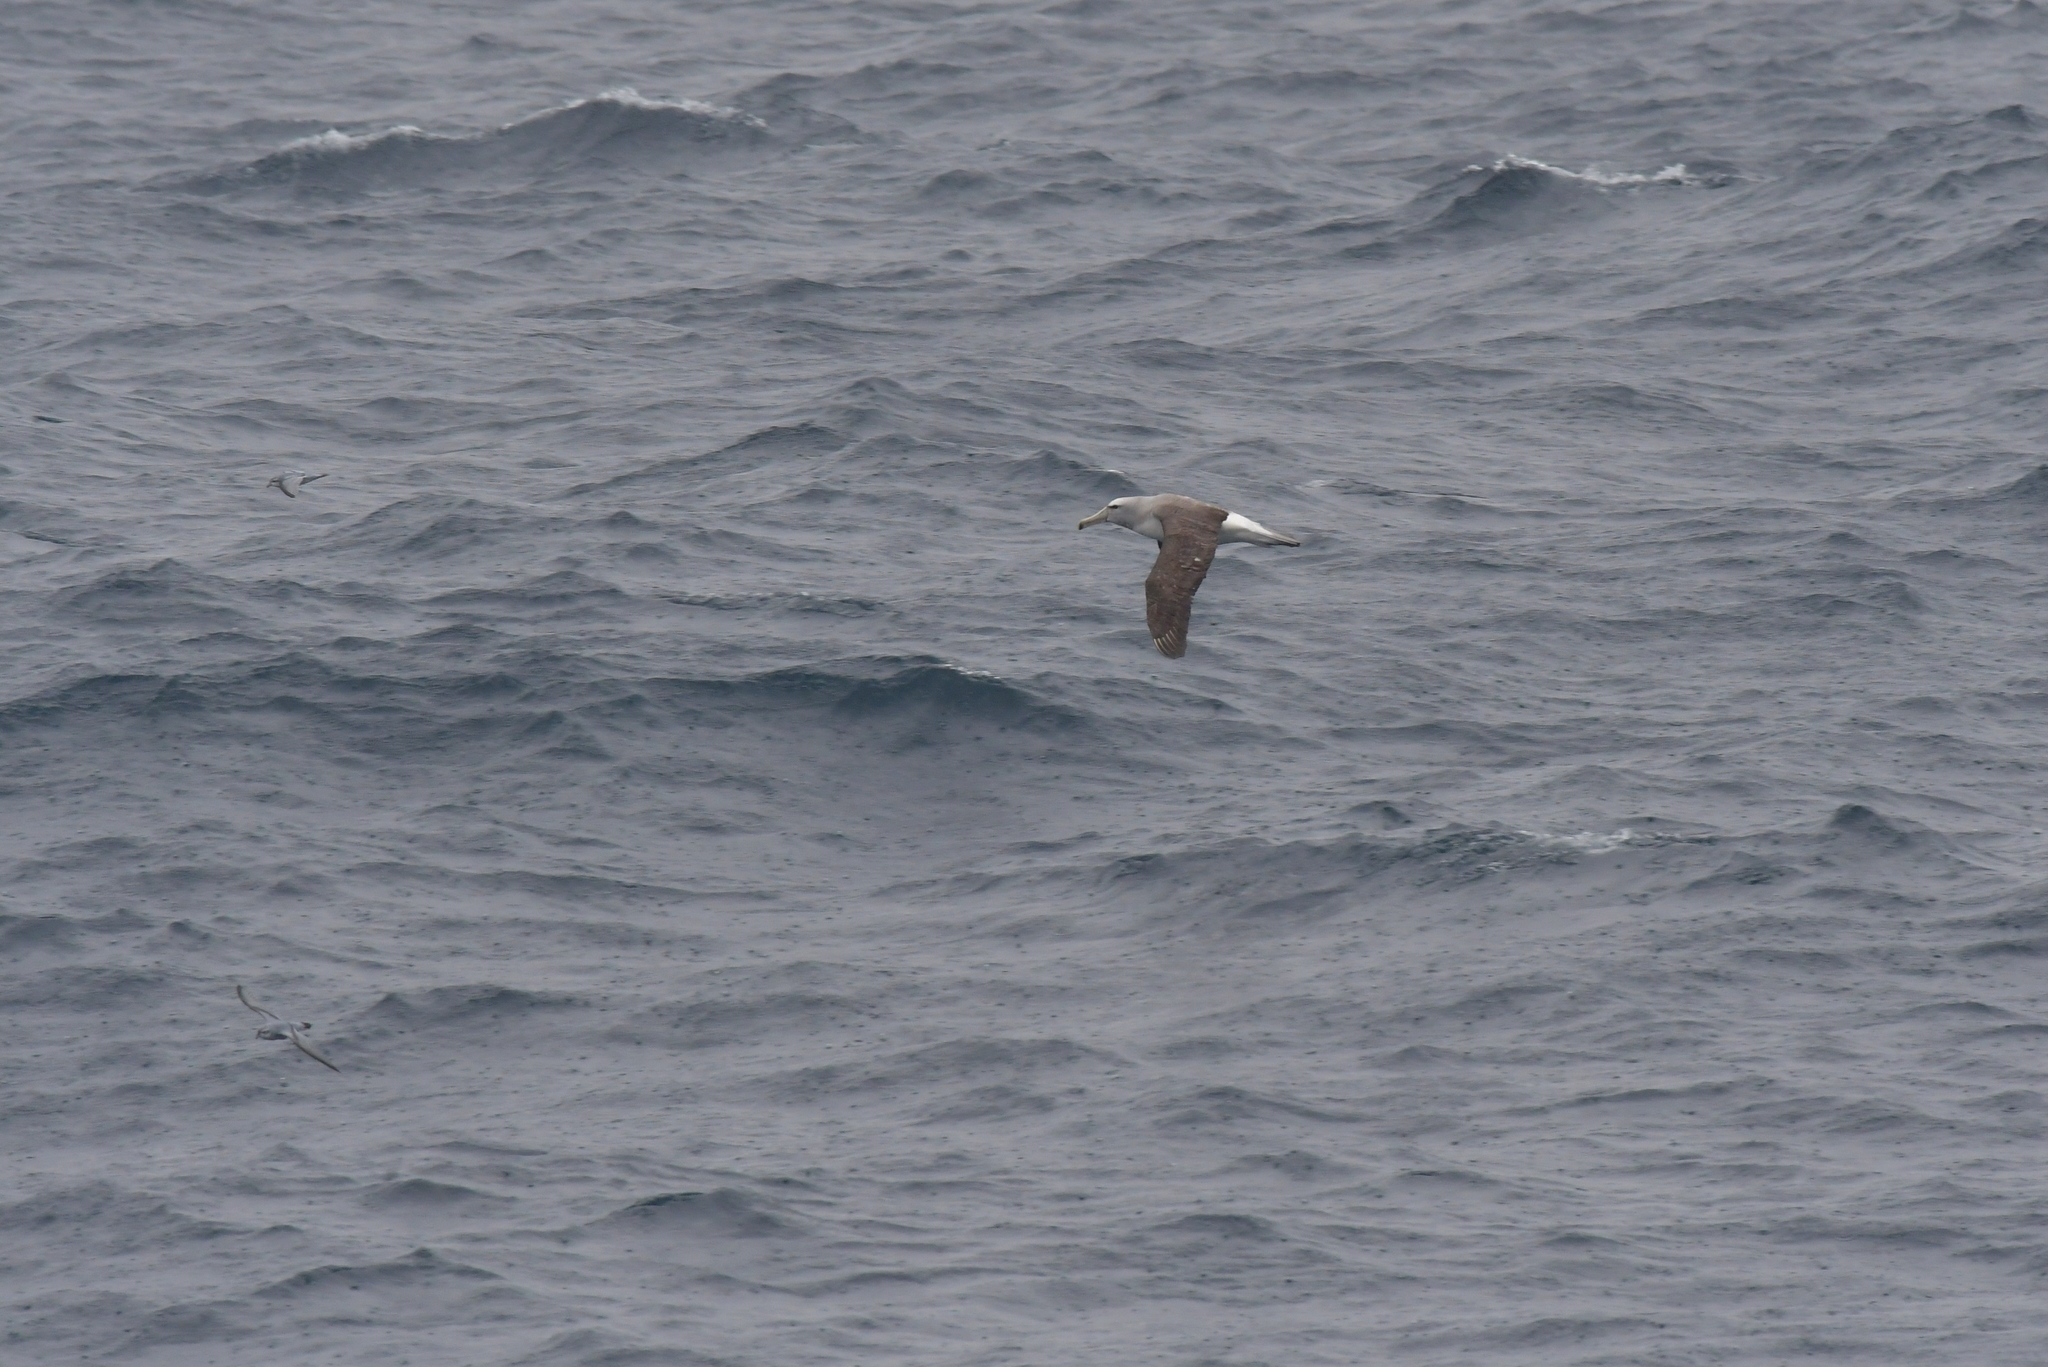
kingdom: Animalia
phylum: Chordata
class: Aves
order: Procellariiformes
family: Diomedeidae
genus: Thalassarche
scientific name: Thalassarche salvini
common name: Salvin's albatross
